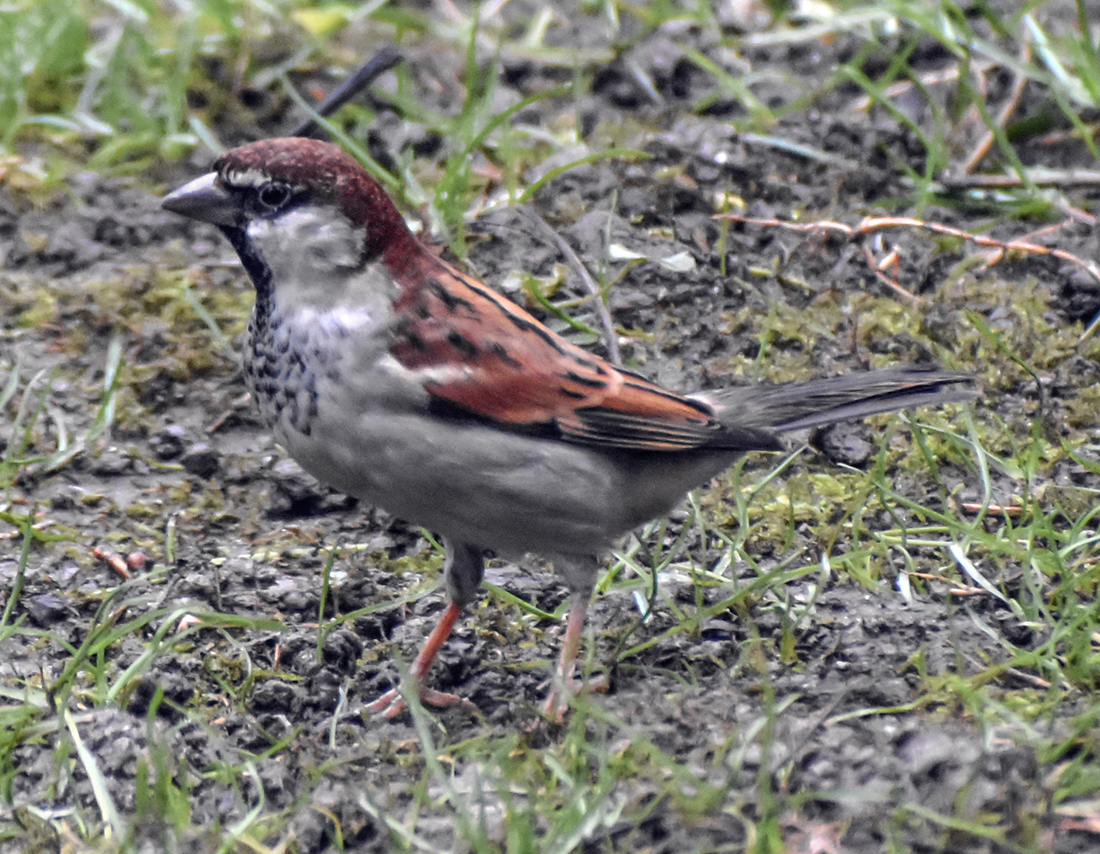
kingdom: Animalia
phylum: Chordata
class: Aves
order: Passeriformes
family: Passeridae
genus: Passer
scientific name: Passer italiae
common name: Italian sparrow
